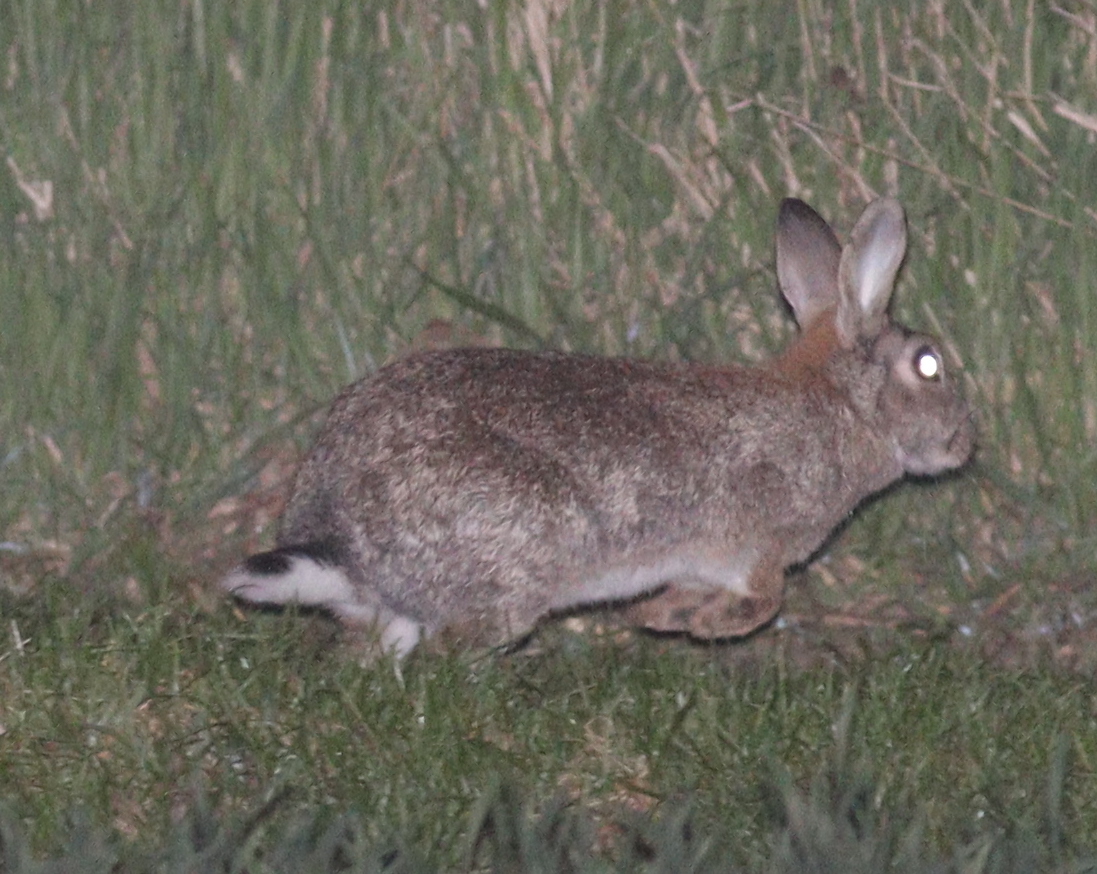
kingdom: Animalia
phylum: Chordata
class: Mammalia
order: Lagomorpha
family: Leporidae
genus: Oryctolagus
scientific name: Oryctolagus cuniculus
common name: European rabbit
